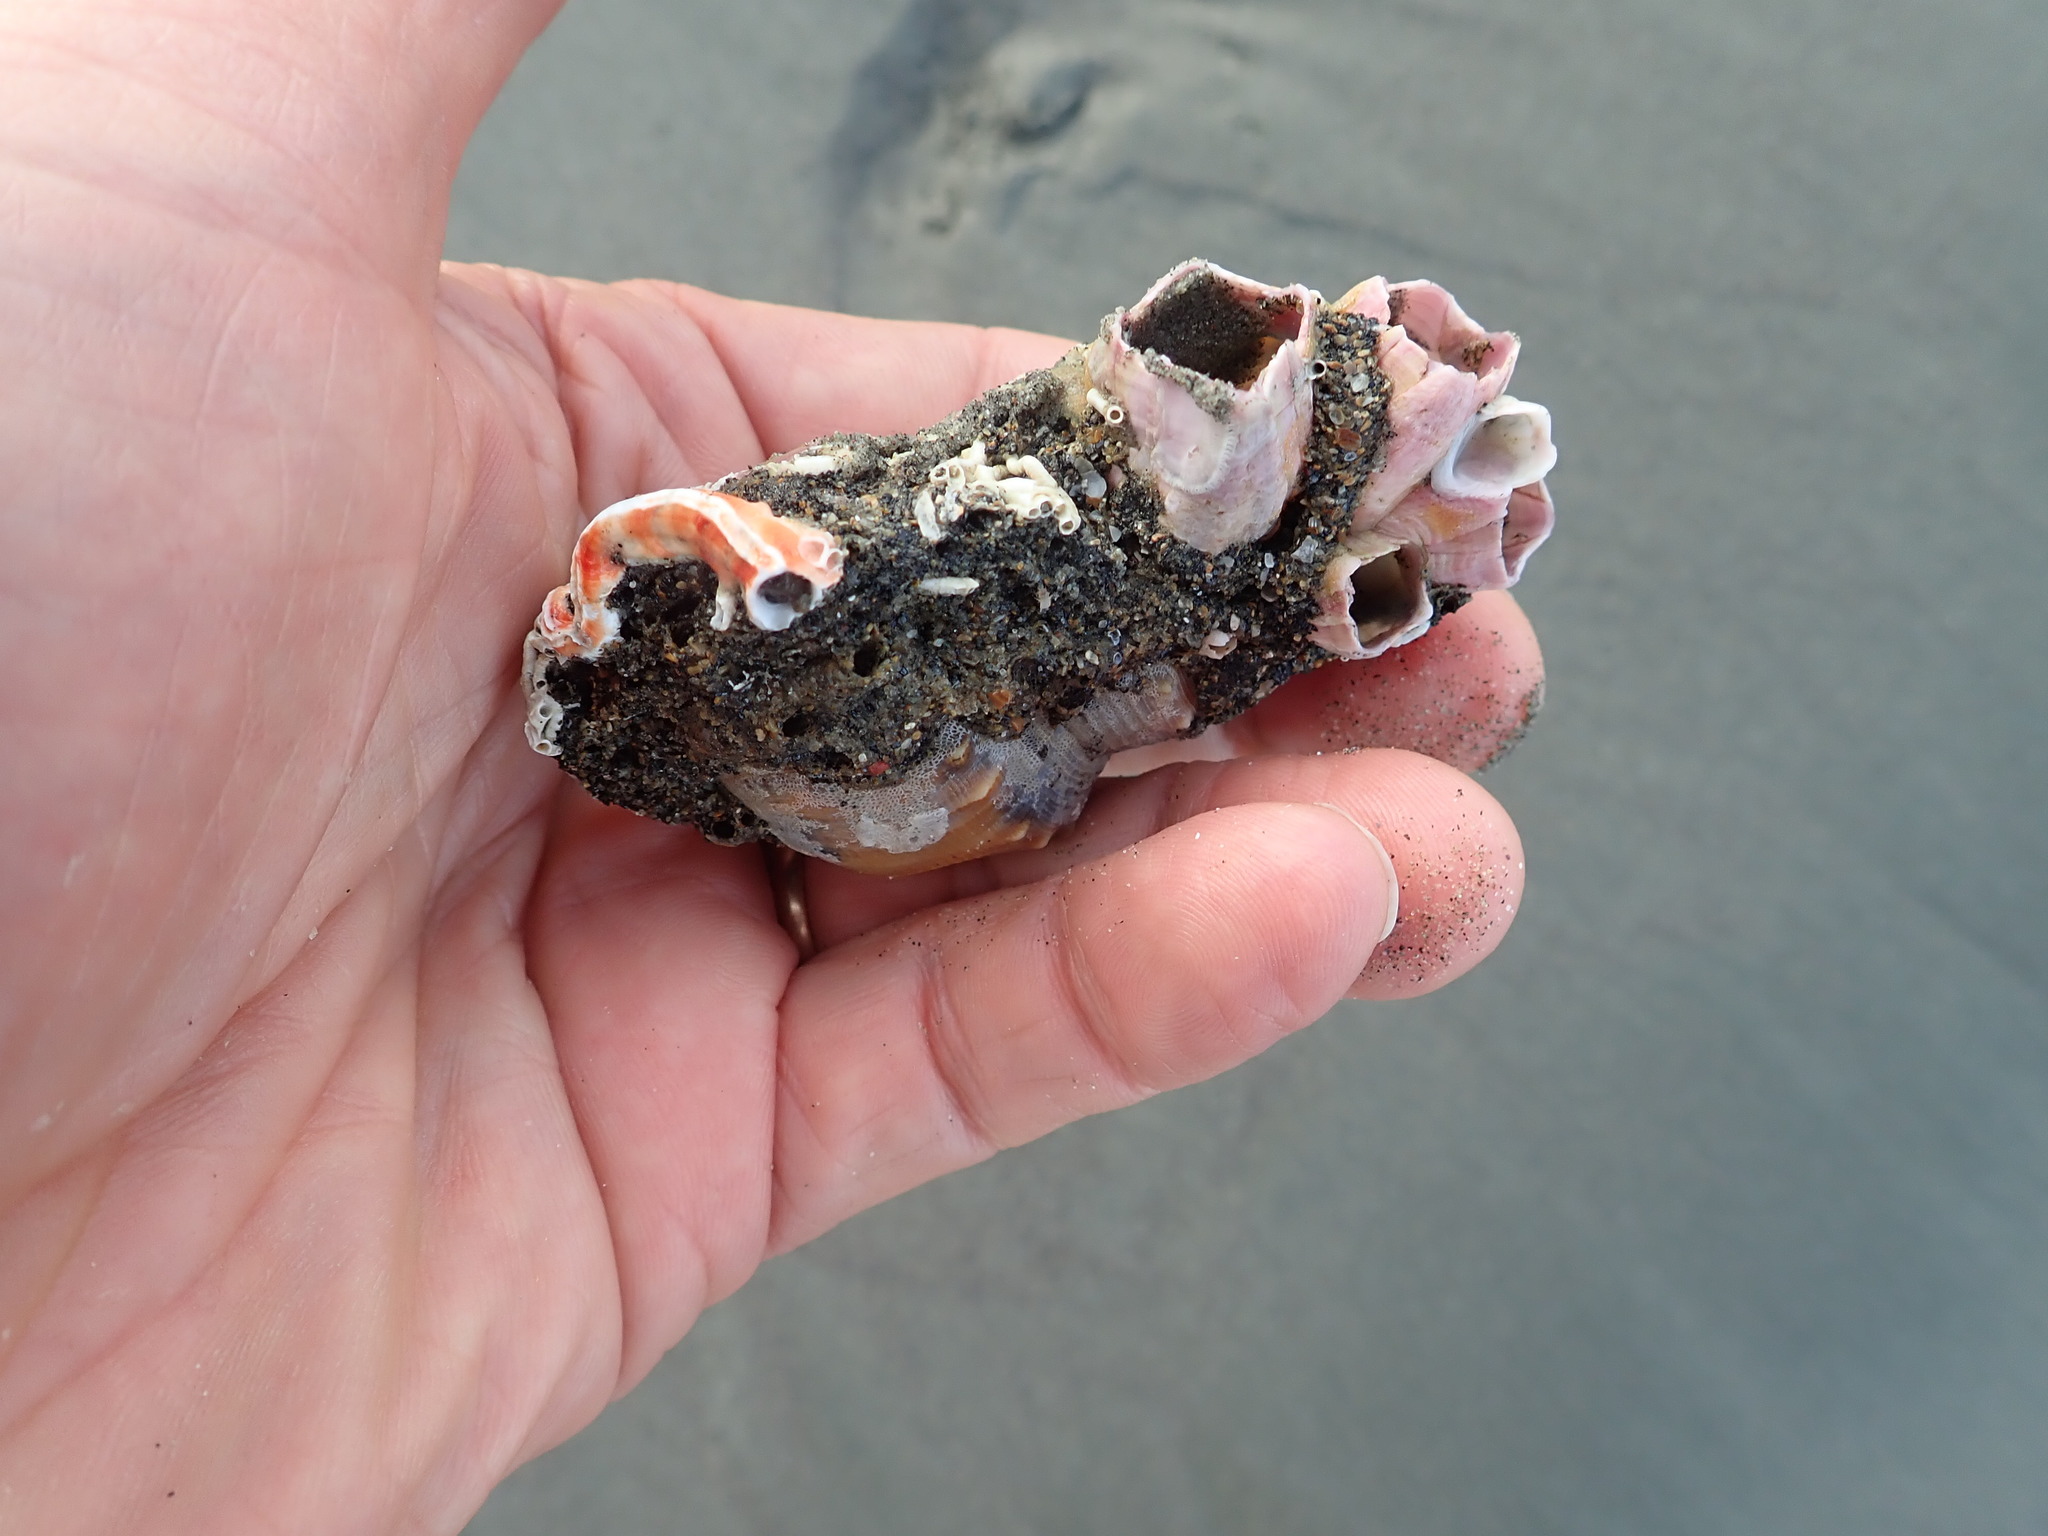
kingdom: Animalia
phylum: Arthropoda
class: Maxillopoda
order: Sessilia
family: Balanidae
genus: Notomegabalanus
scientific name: Notomegabalanus decorus
